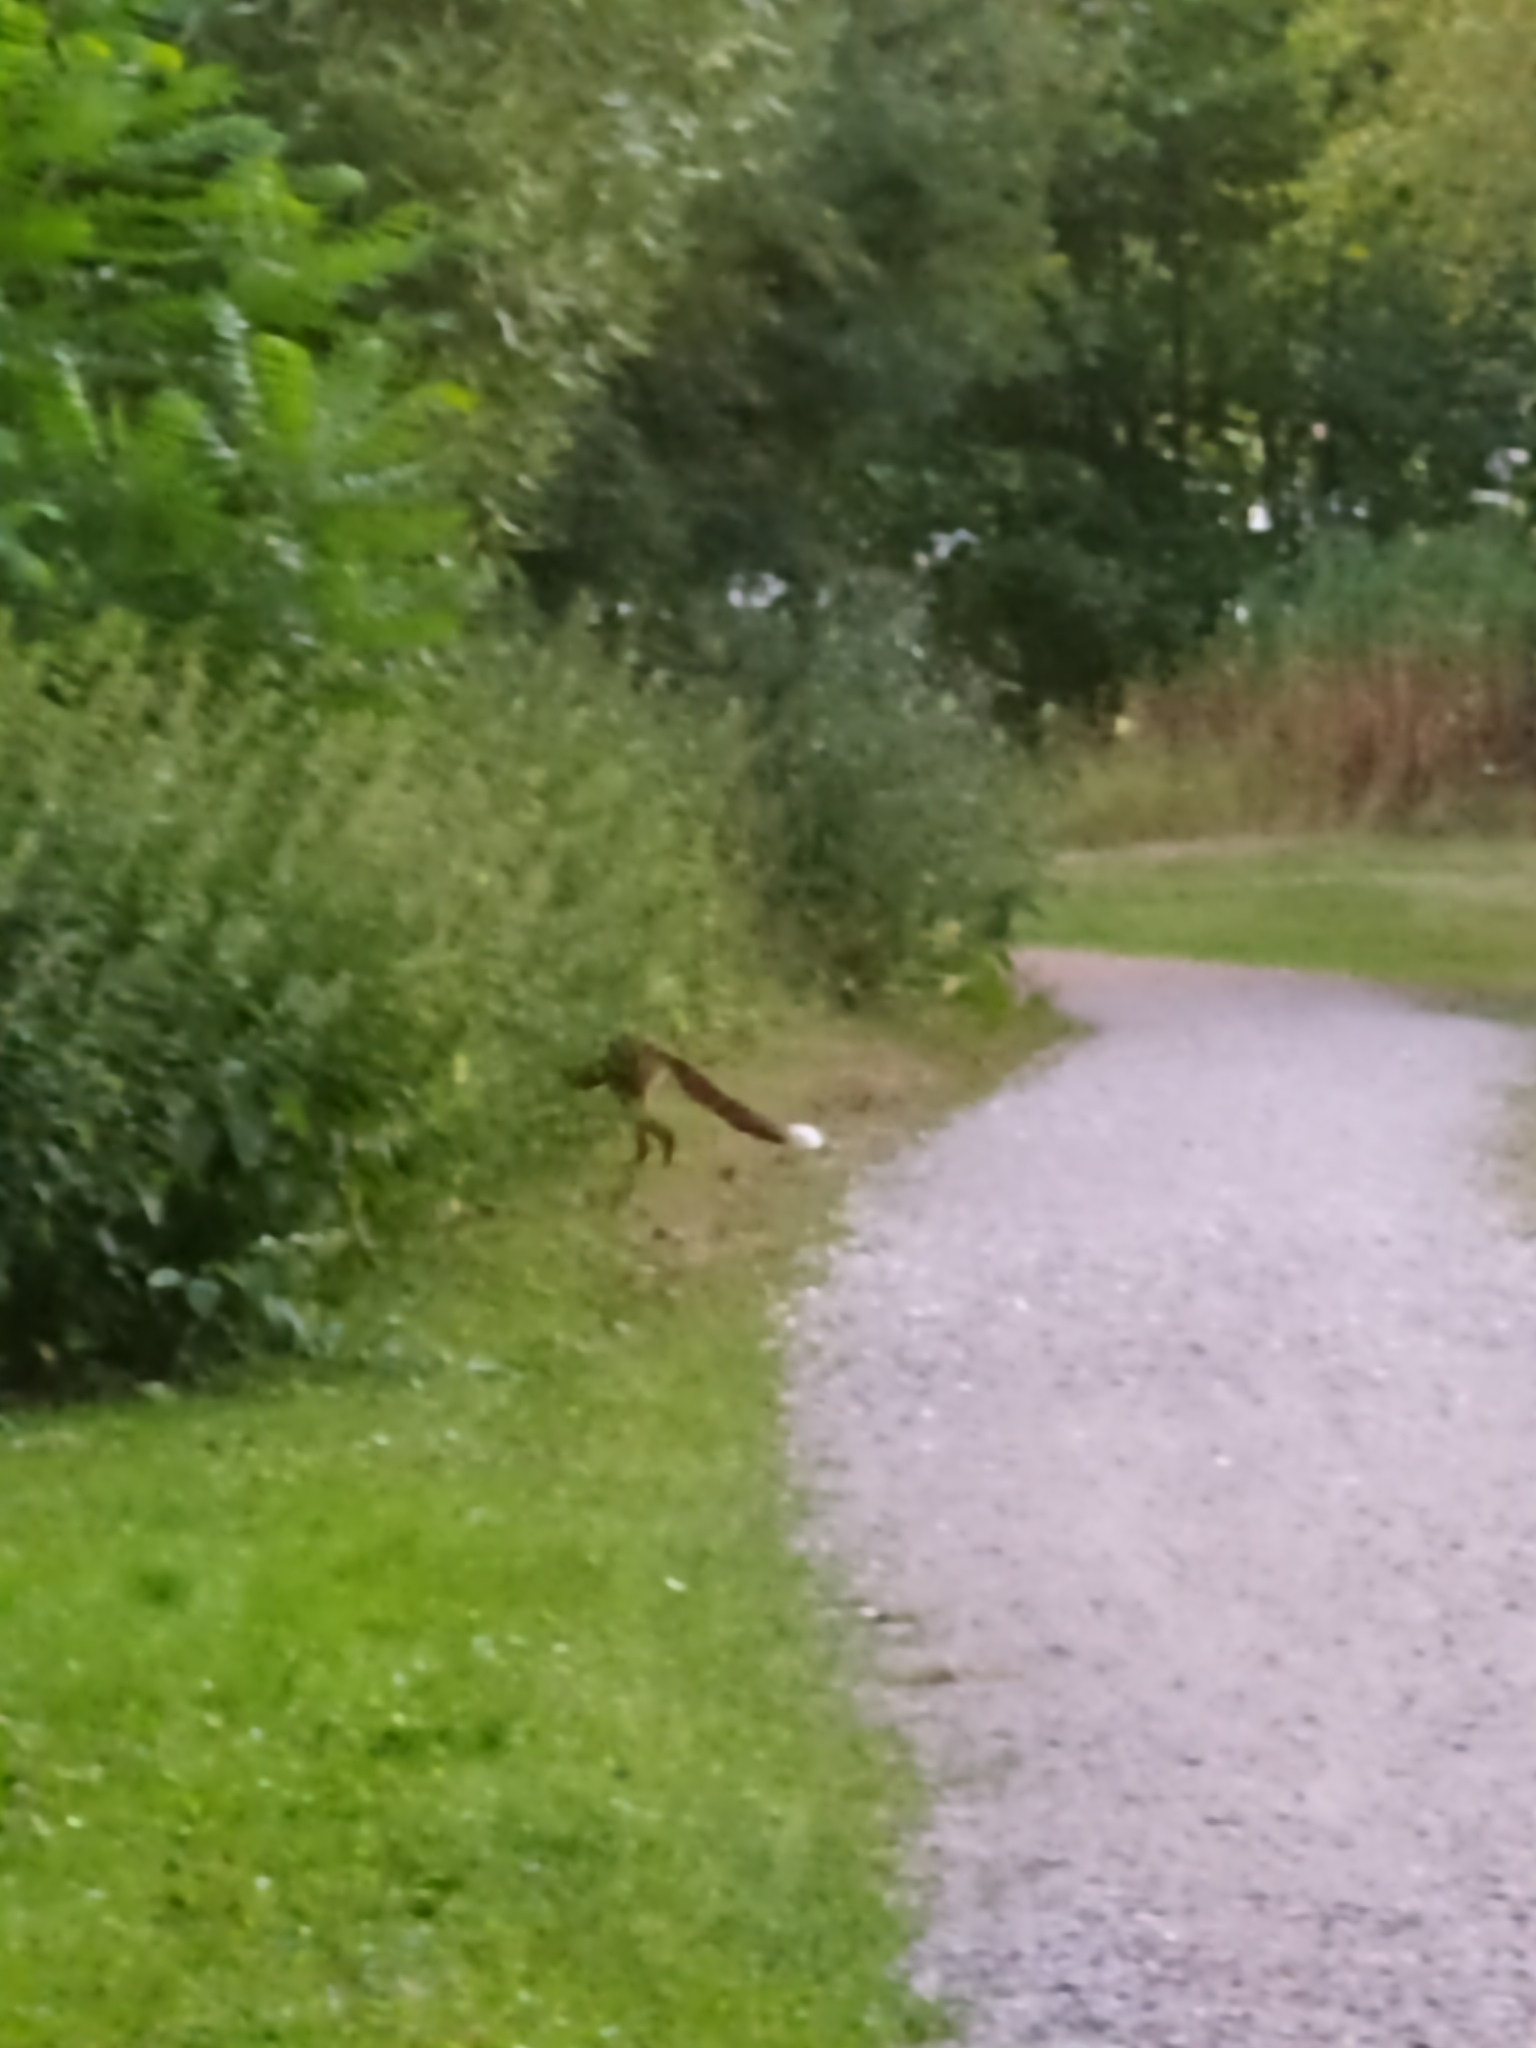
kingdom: Animalia
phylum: Chordata
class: Mammalia
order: Carnivora
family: Canidae
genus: Vulpes
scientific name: Vulpes vulpes
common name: Red fox
